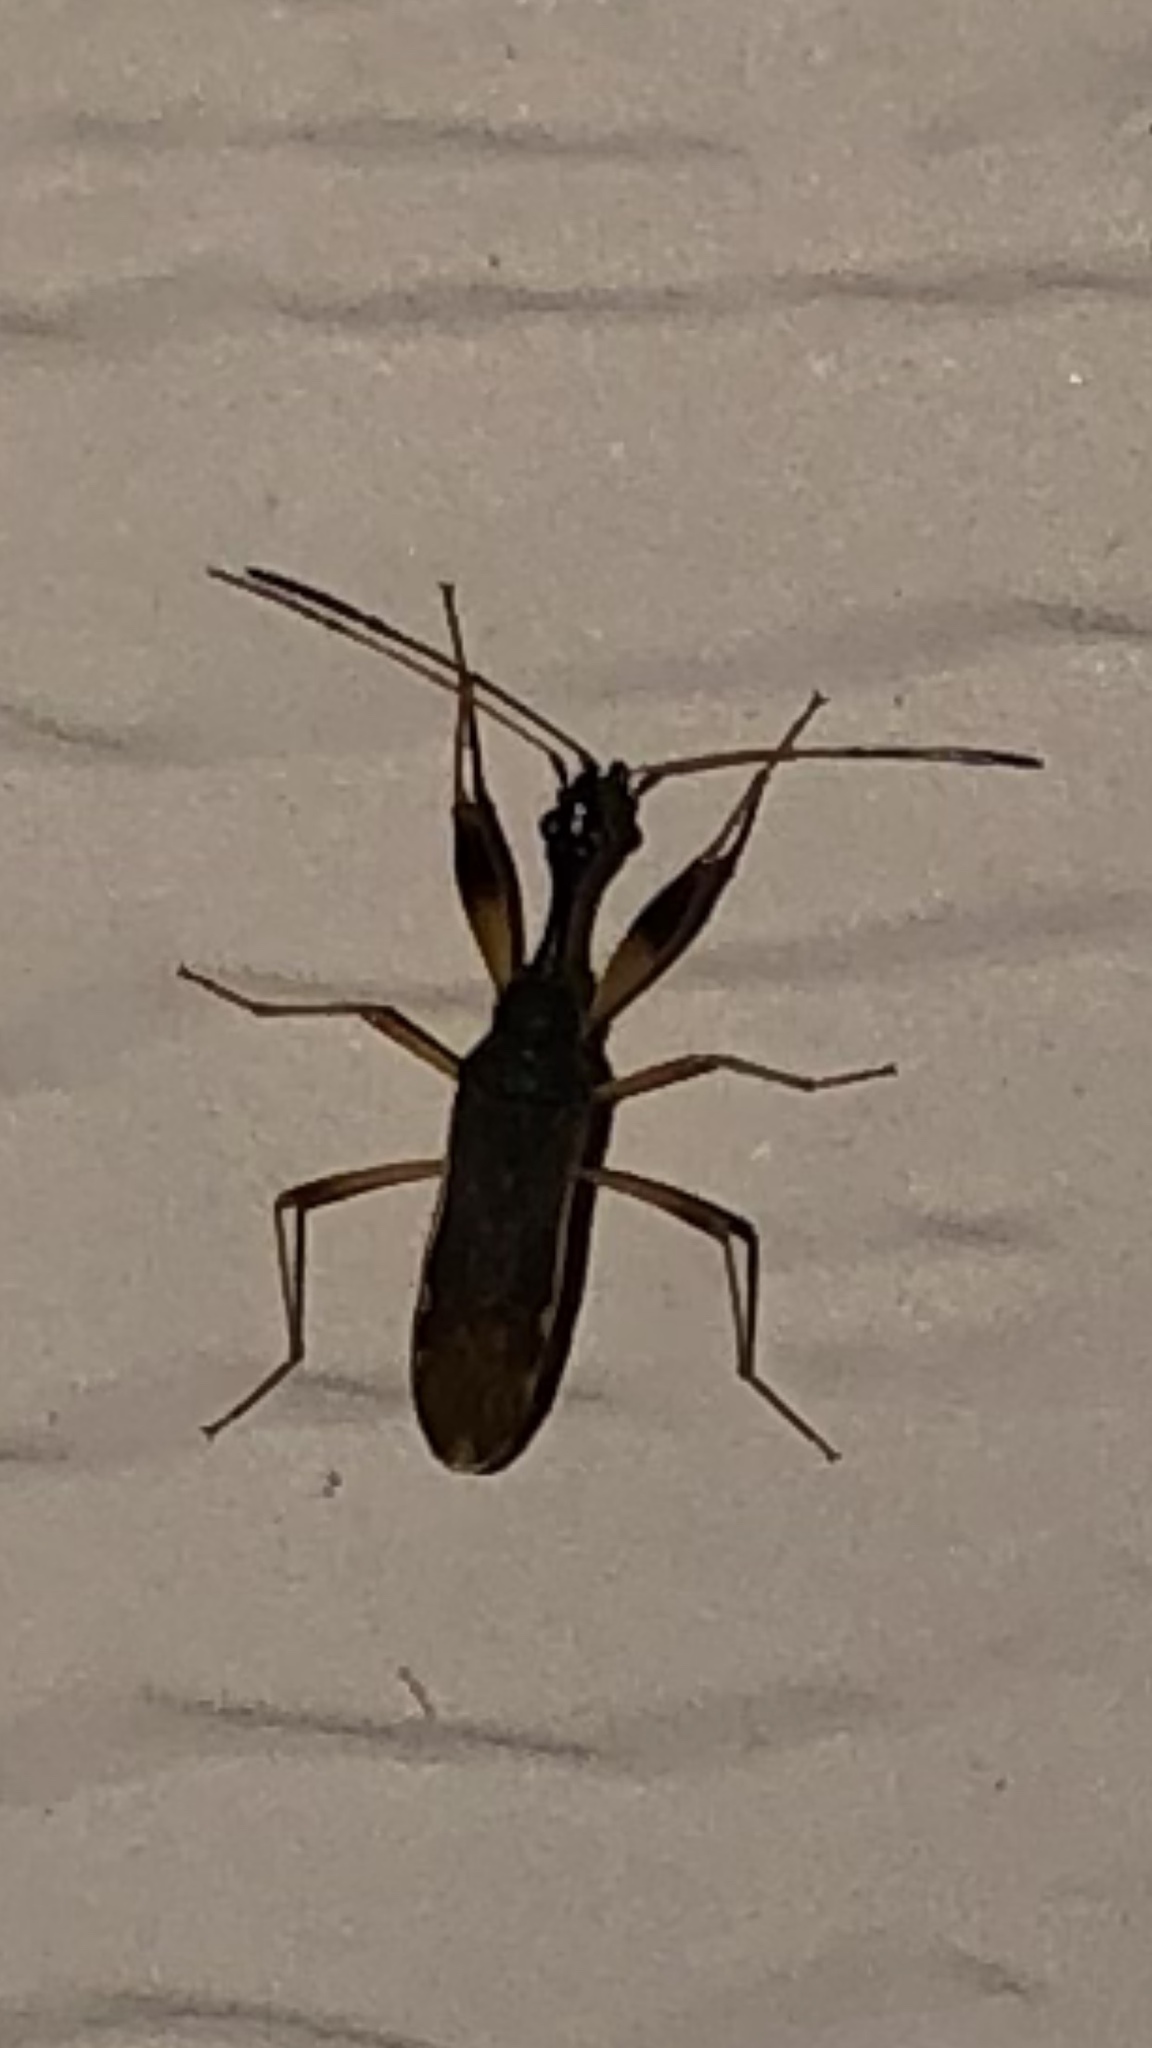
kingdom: Animalia
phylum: Arthropoda
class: Insecta
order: Hemiptera
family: Rhyparochromidae
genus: Myodocha
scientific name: Myodocha serripes
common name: Long-necked seed bug
